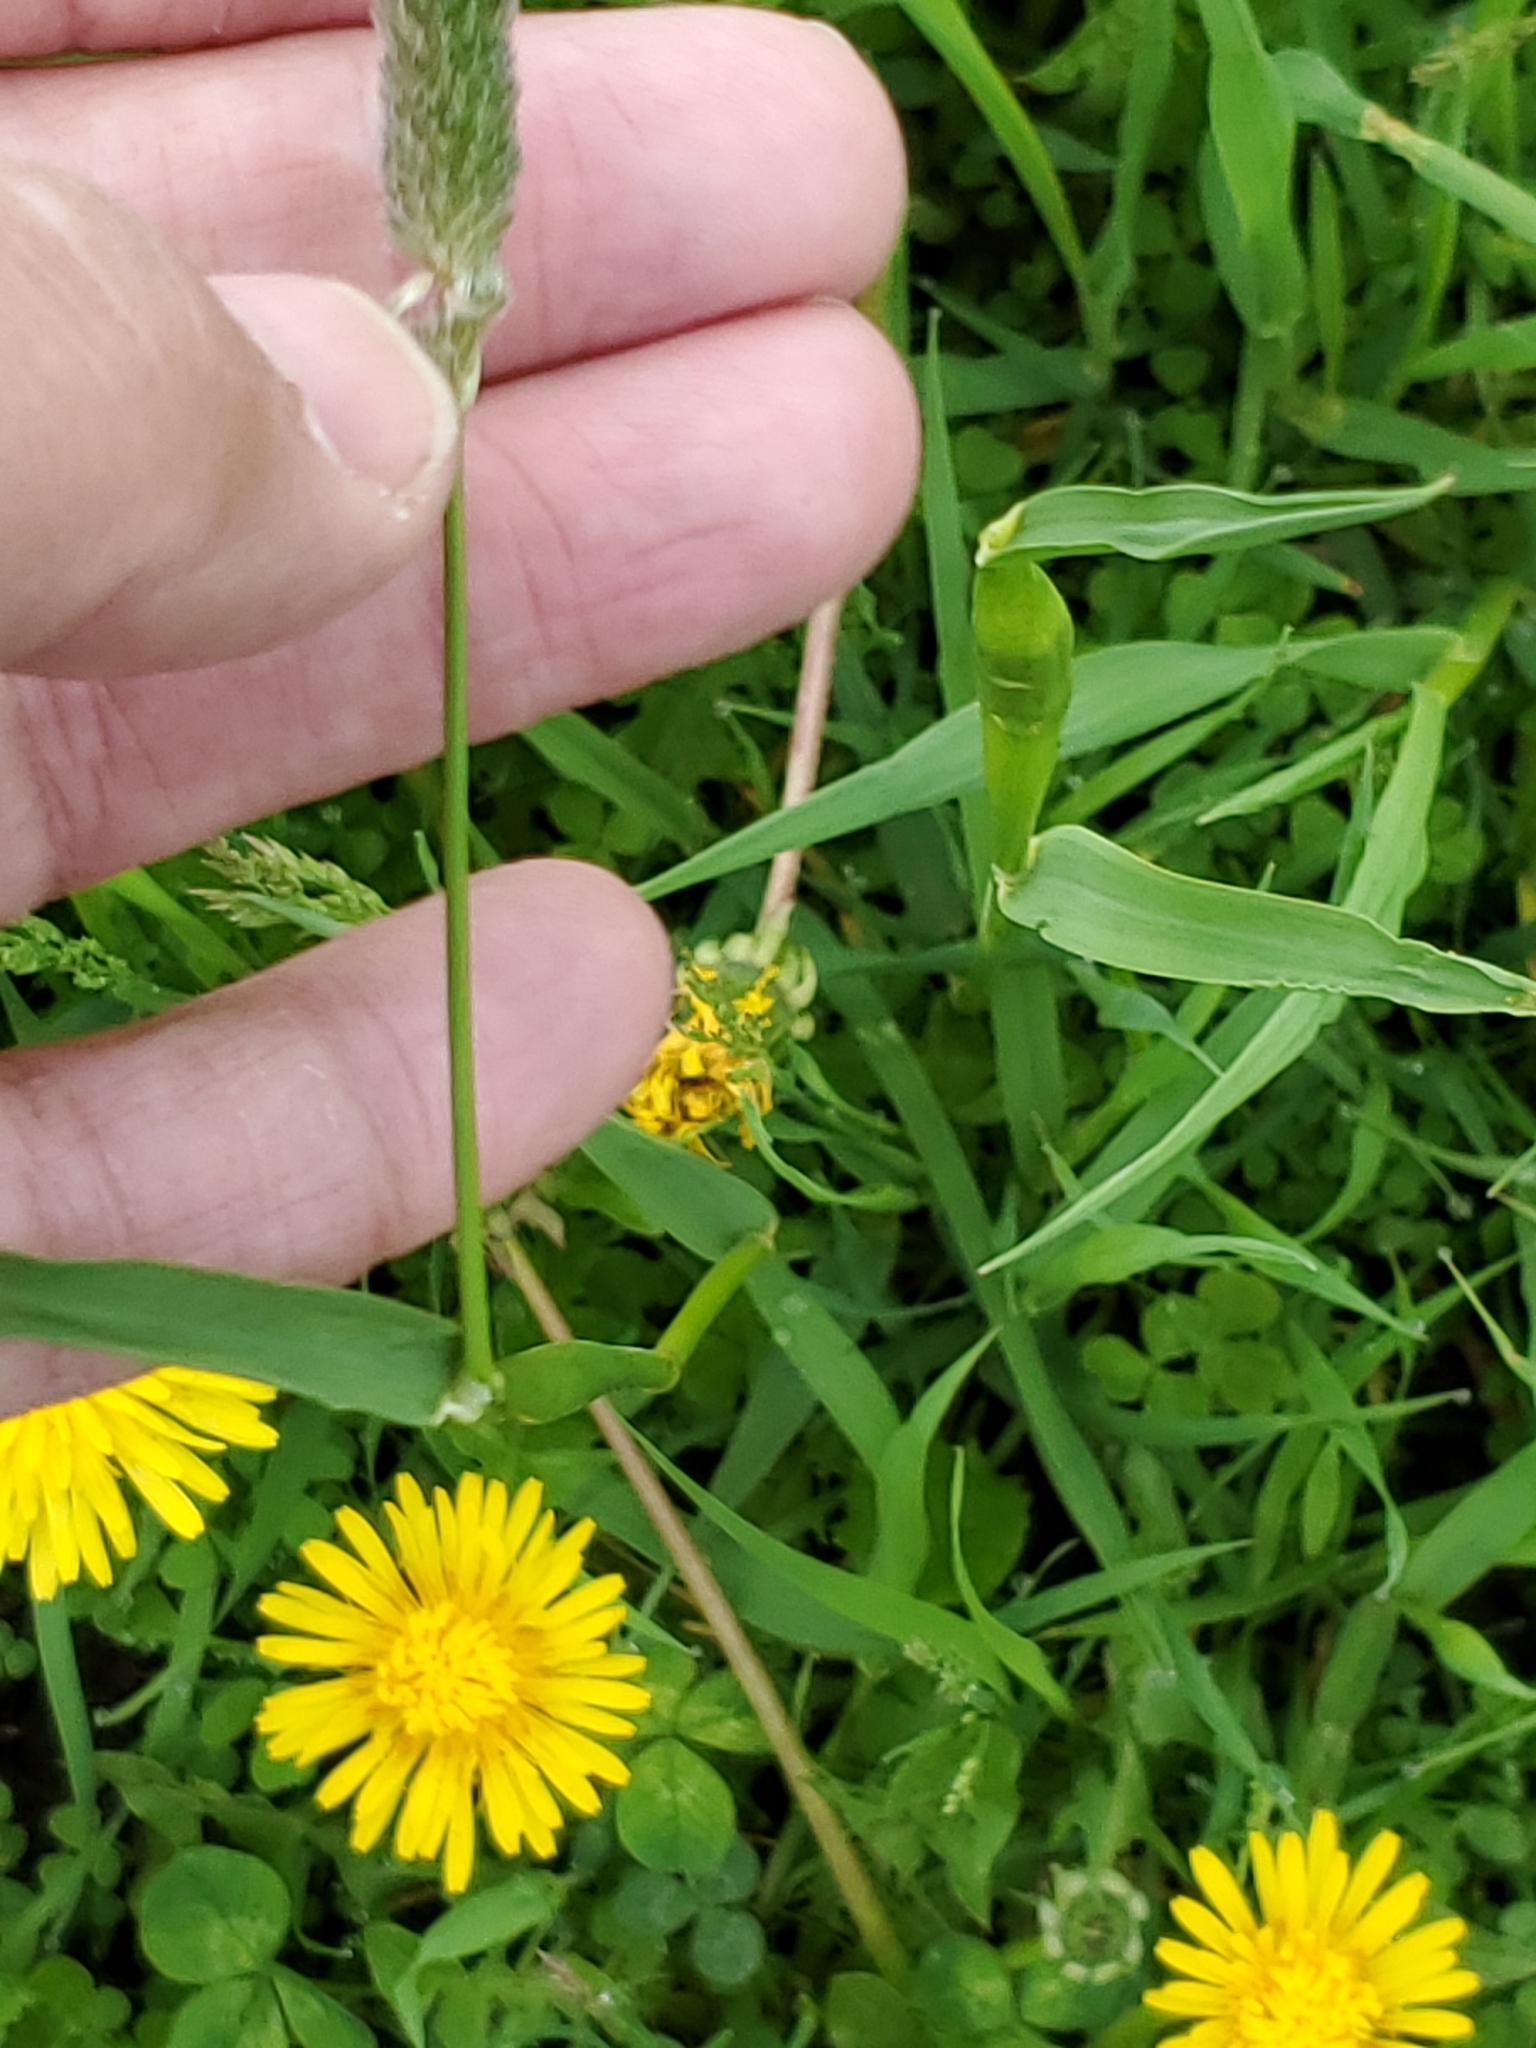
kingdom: Plantae
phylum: Tracheophyta
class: Liliopsida
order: Poales
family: Poaceae
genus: Phleum
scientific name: Phleum pratense
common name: Timothy grass
